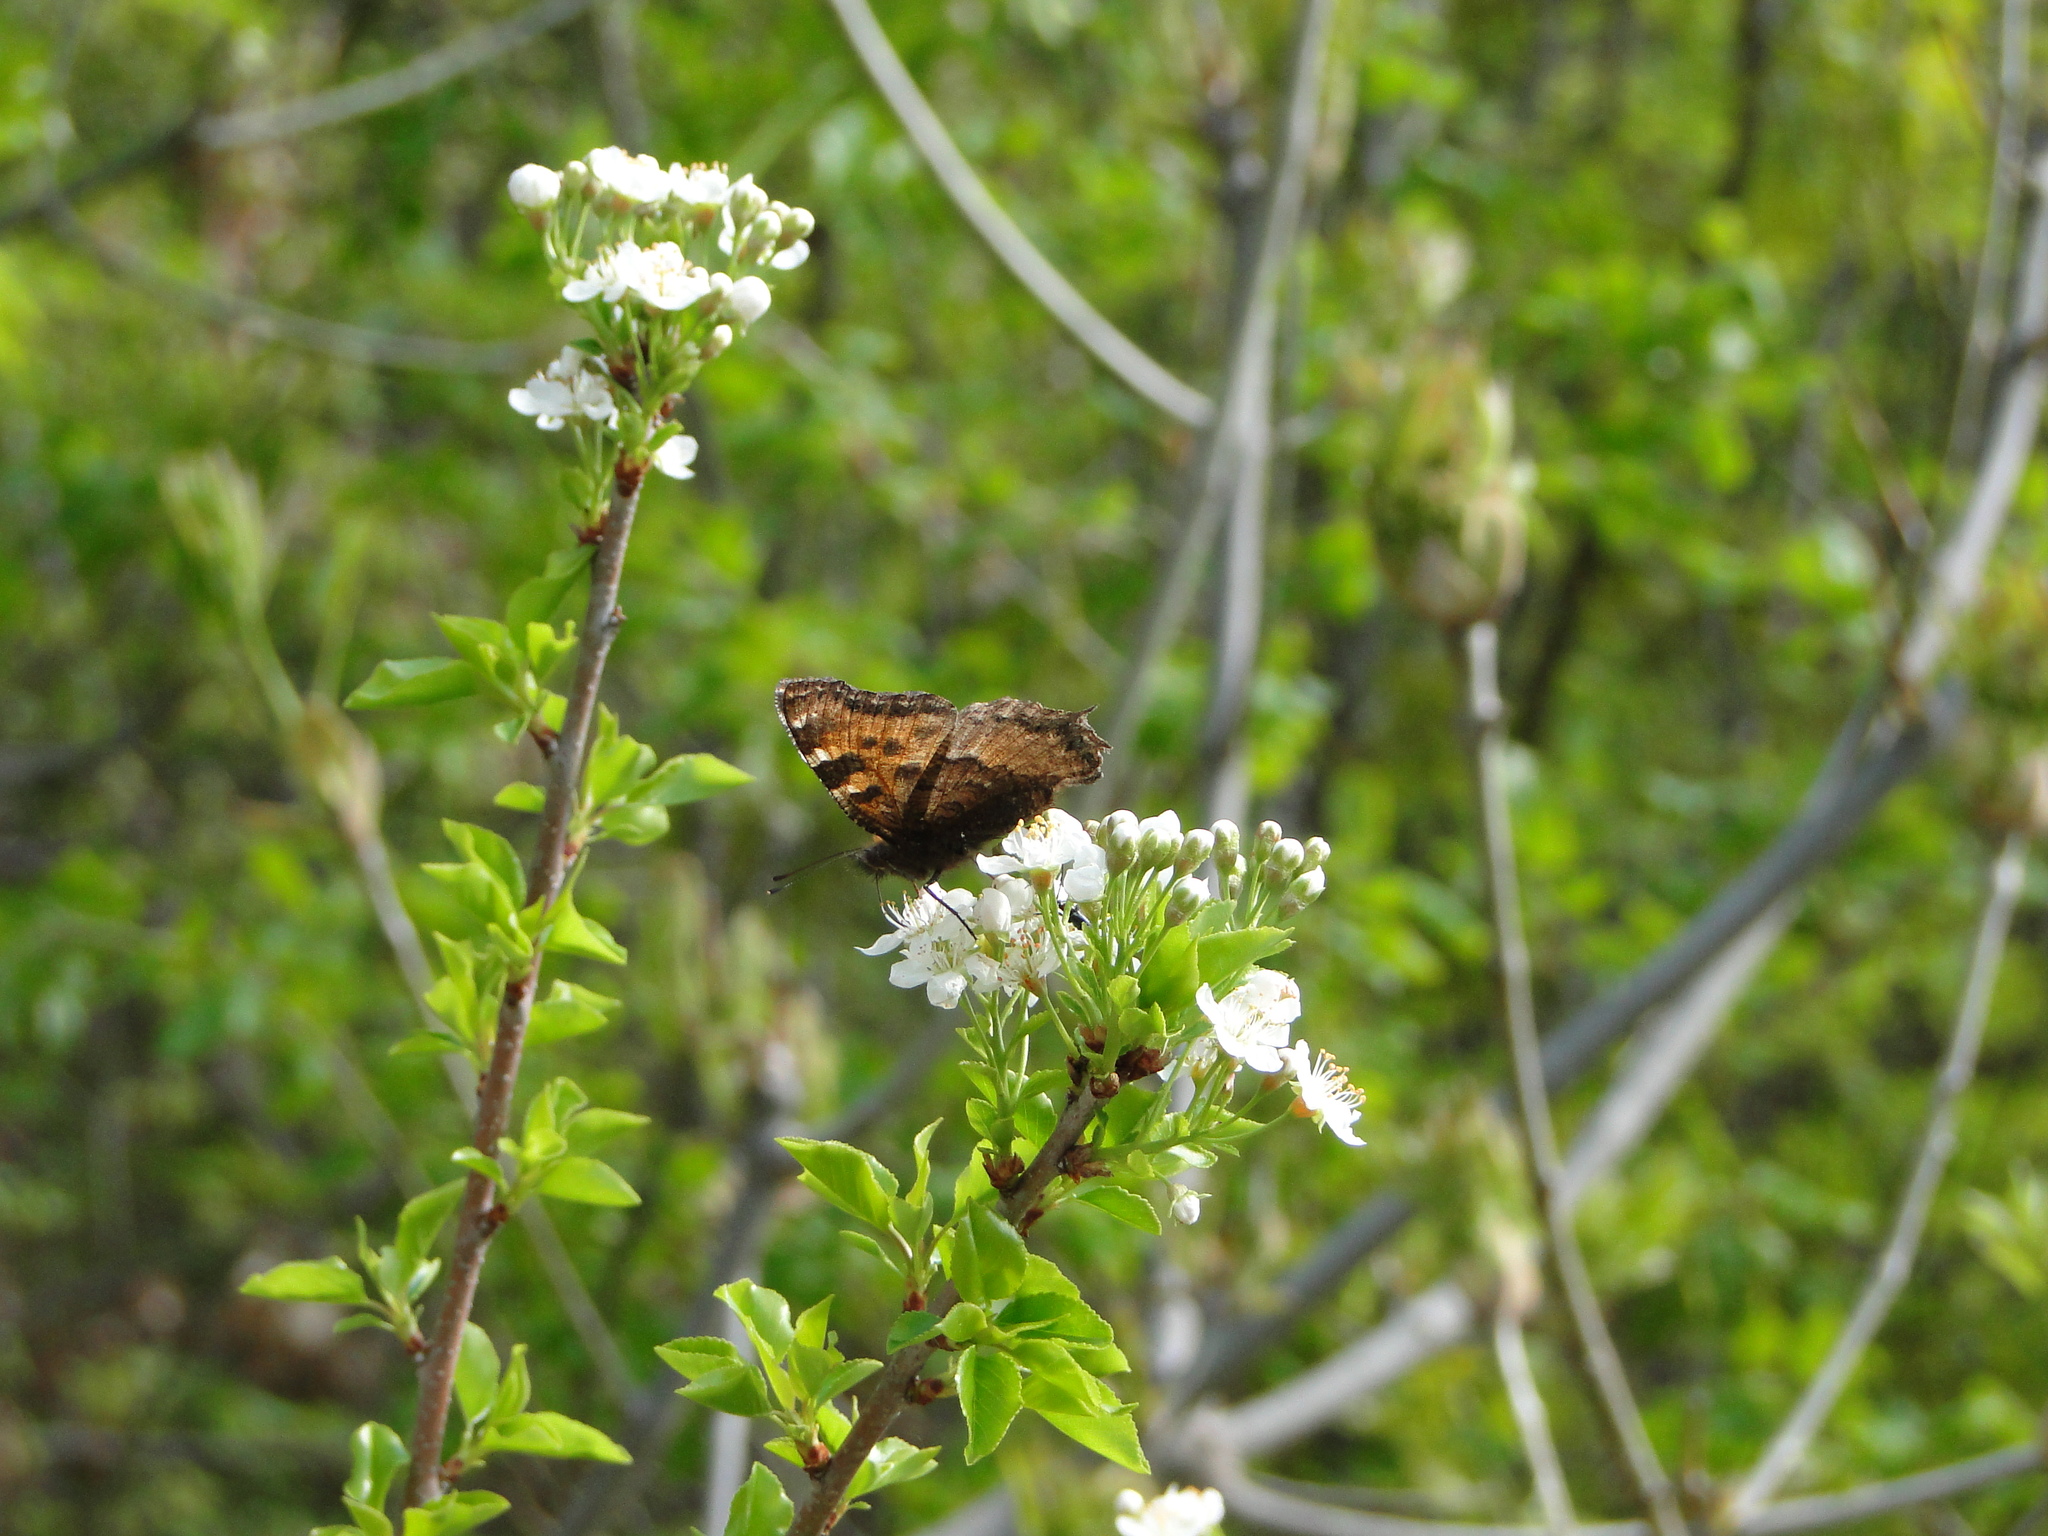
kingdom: Animalia
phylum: Arthropoda
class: Insecta
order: Lepidoptera
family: Nymphalidae
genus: Nymphalis
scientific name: Nymphalis polychloros
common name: Large tortoiseshell
